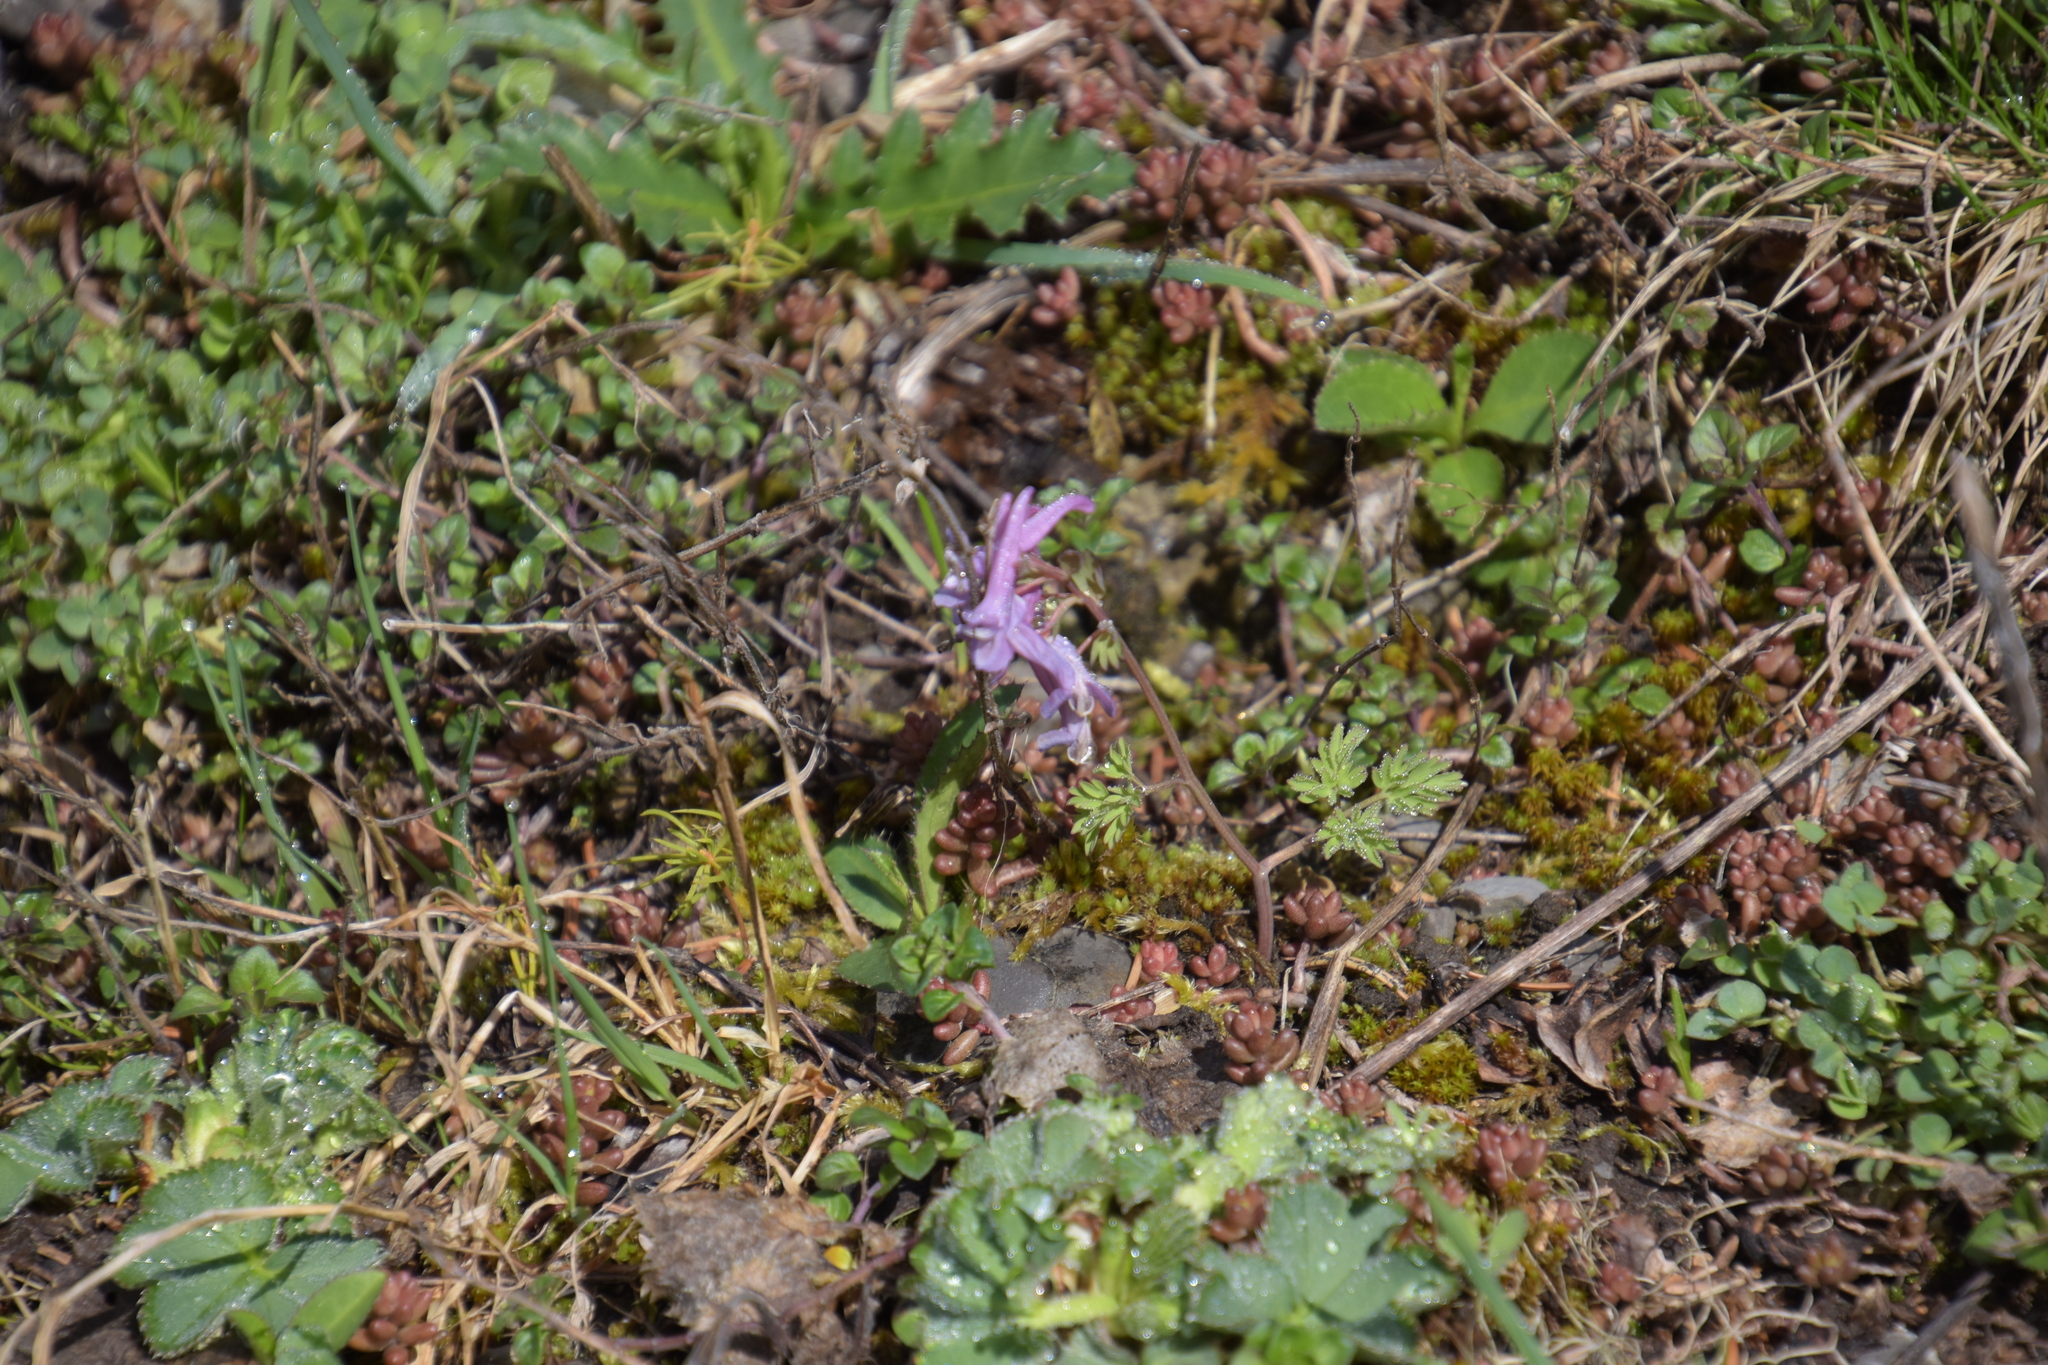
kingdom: Plantae
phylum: Tracheophyta
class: Magnoliopsida
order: Ranunculales
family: Papaveraceae
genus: Corydalis
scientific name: Corydalis solida
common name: Bird-in-a-bush
